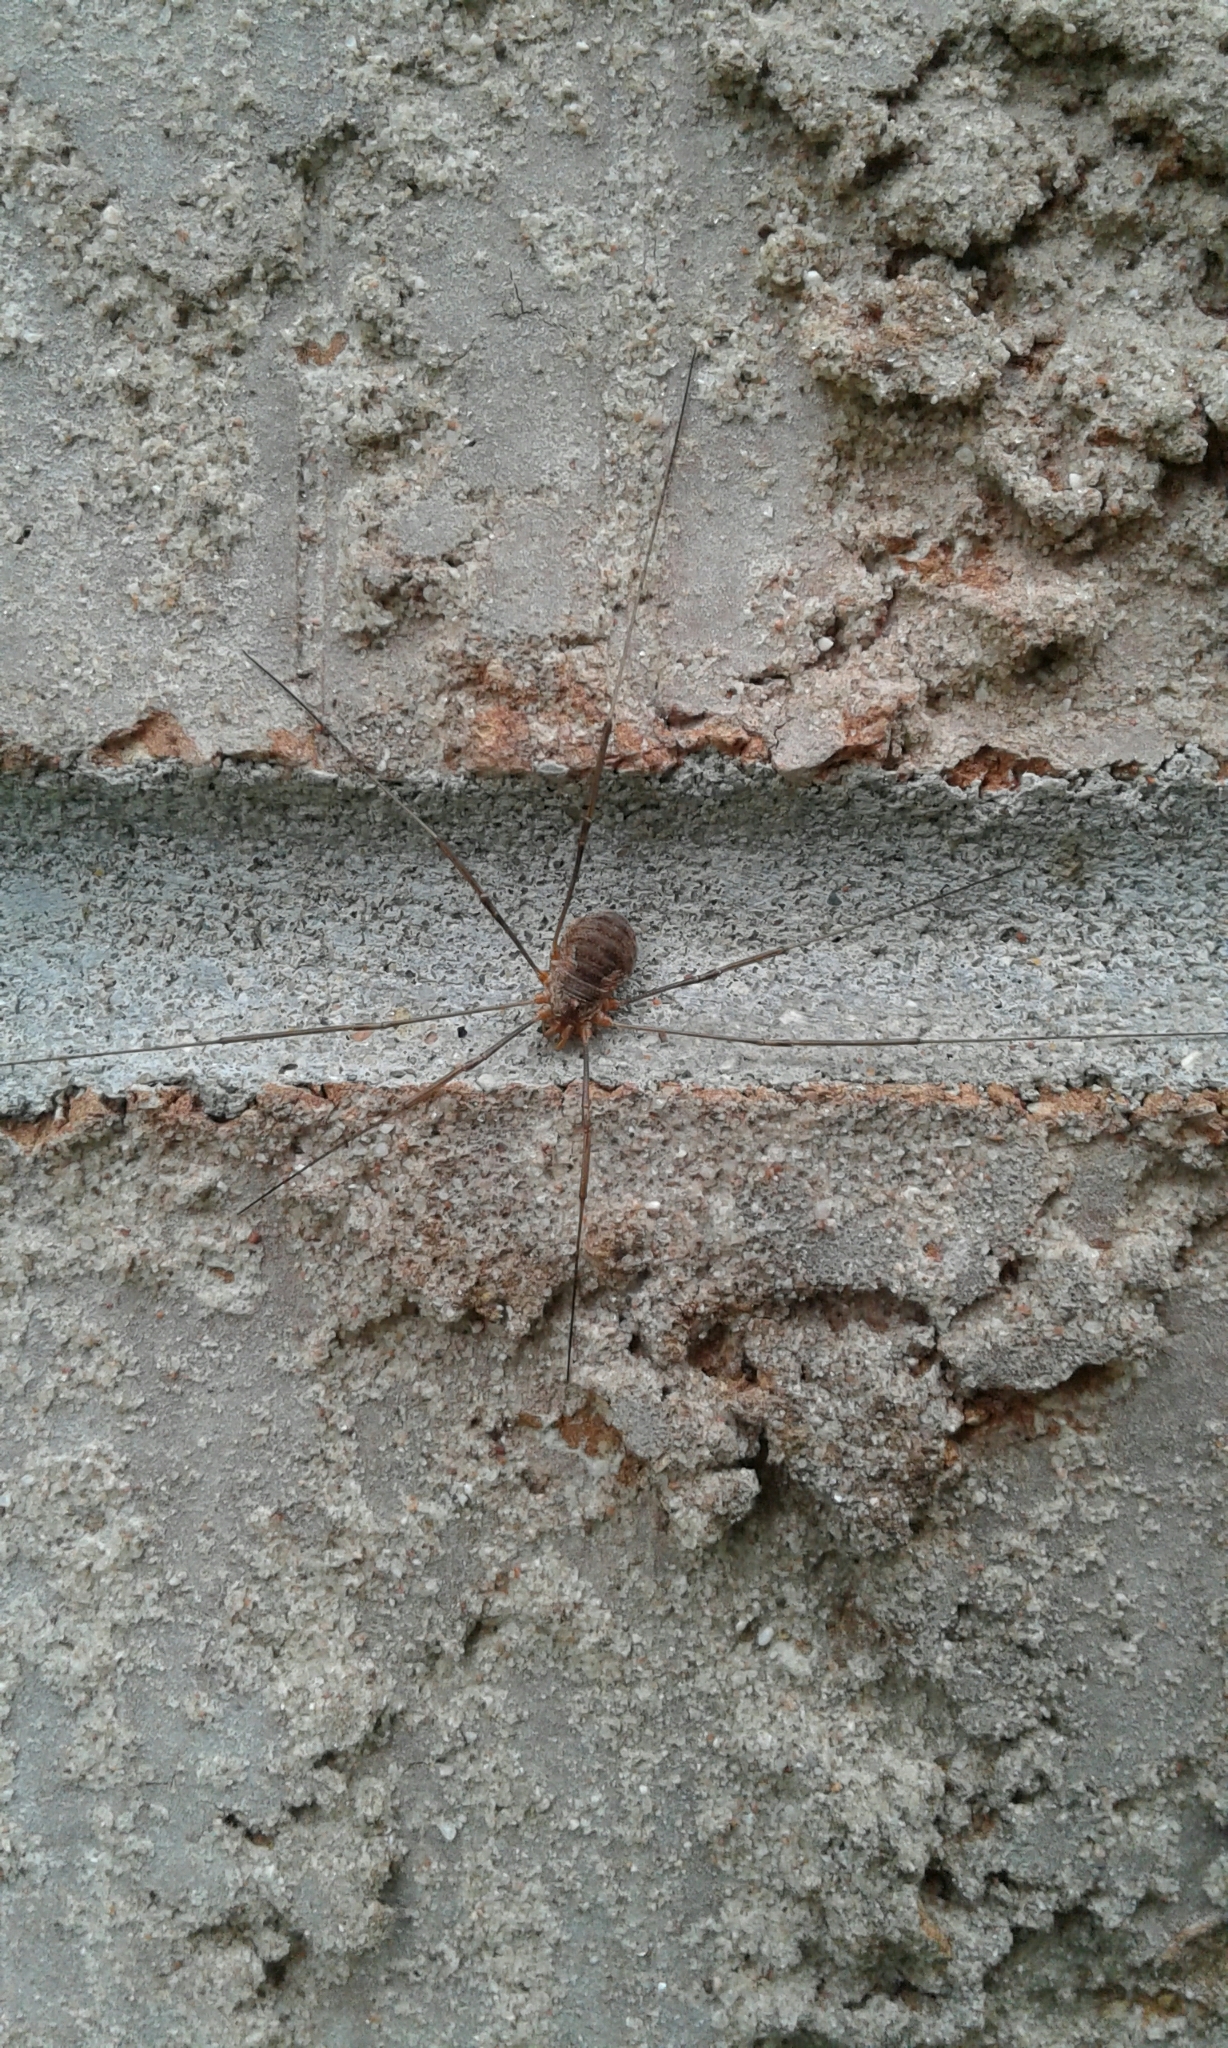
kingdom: Animalia
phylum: Arthropoda
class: Arachnida
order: Opiliones
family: Phalangiidae
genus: Phalangium
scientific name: Phalangium opilio
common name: Daddy longleg
